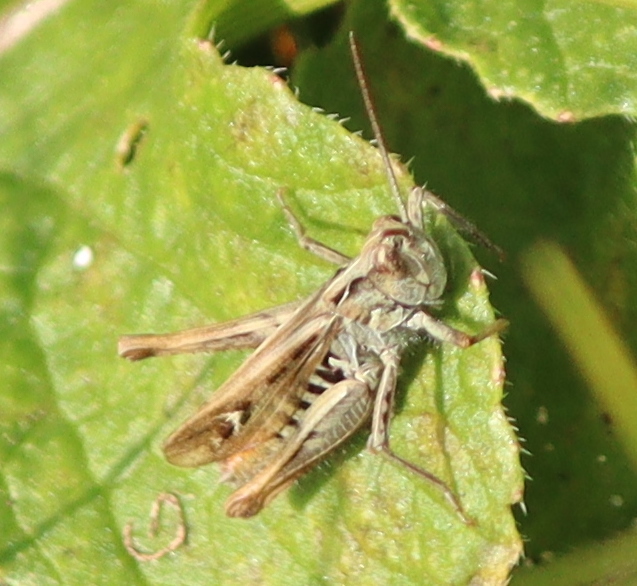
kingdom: Animalia
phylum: Arthropoda
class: Insecta
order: Orthoptera
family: Acrididae
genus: Chorthippus
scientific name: Chorthippus biguttulus
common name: Bow-winged grasshopper
